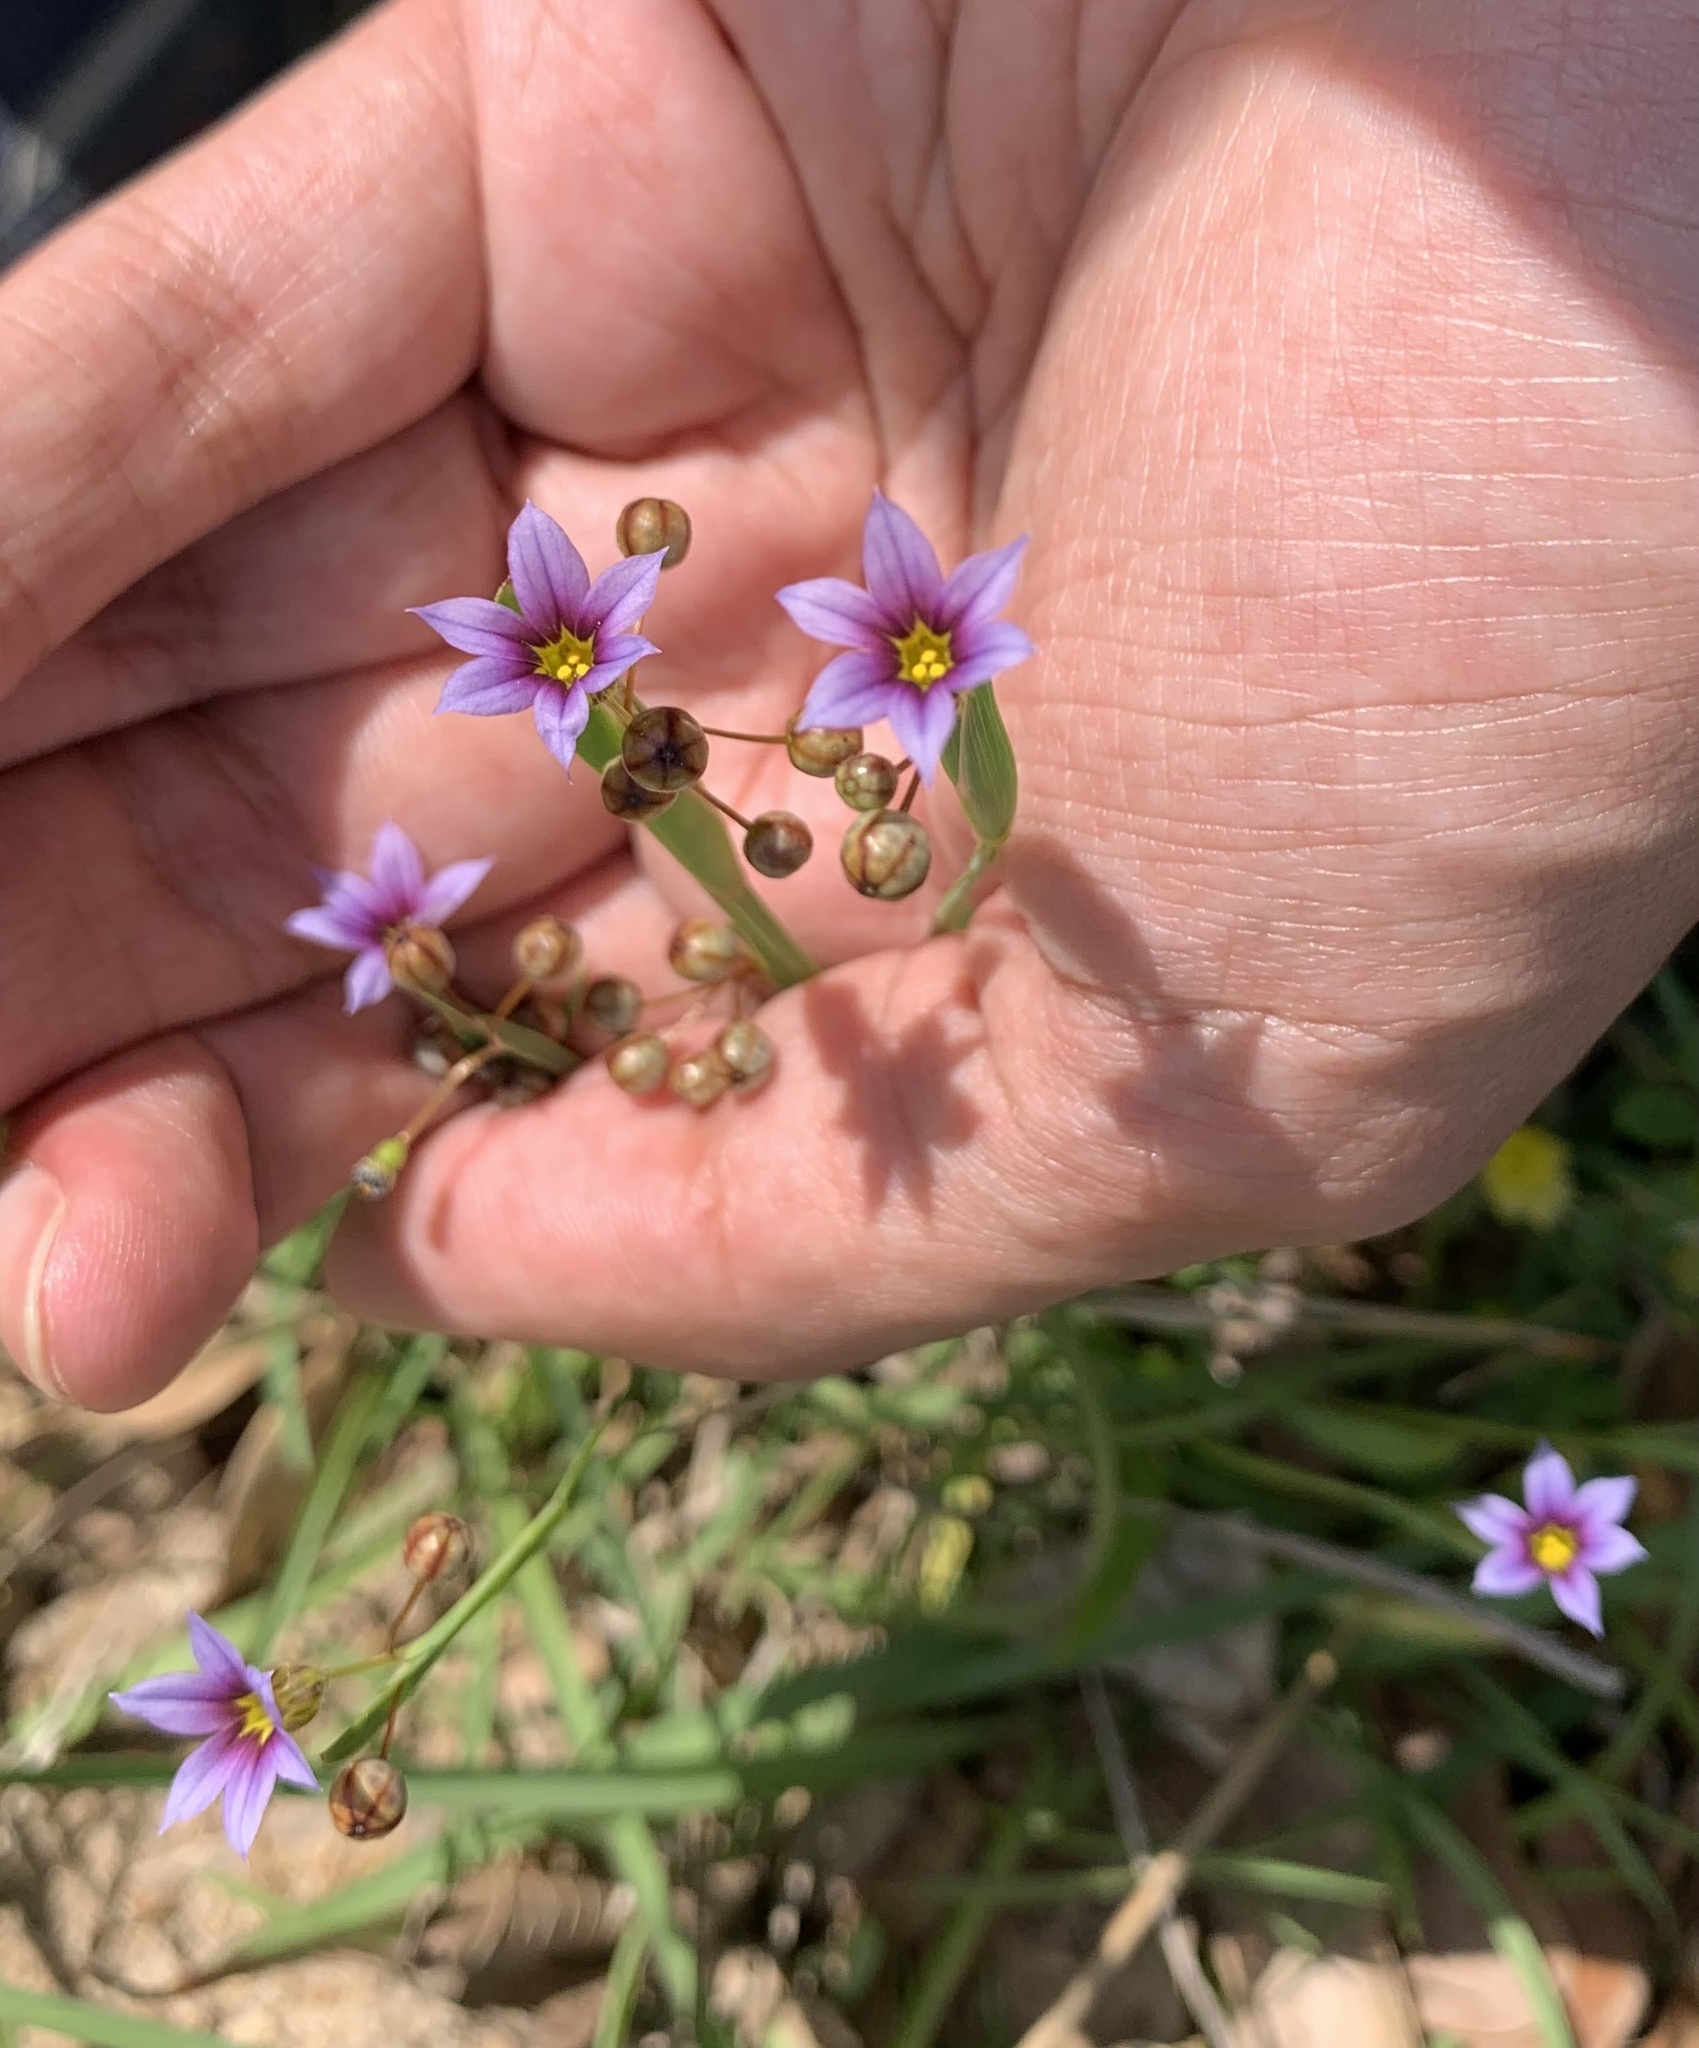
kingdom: Plantae
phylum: Tracheophyta
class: Liliopsida
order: Asparagales
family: Iridaceae
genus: Sisyrinchium
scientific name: Sisyrinchium micranthum
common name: Bermuda pigroot
